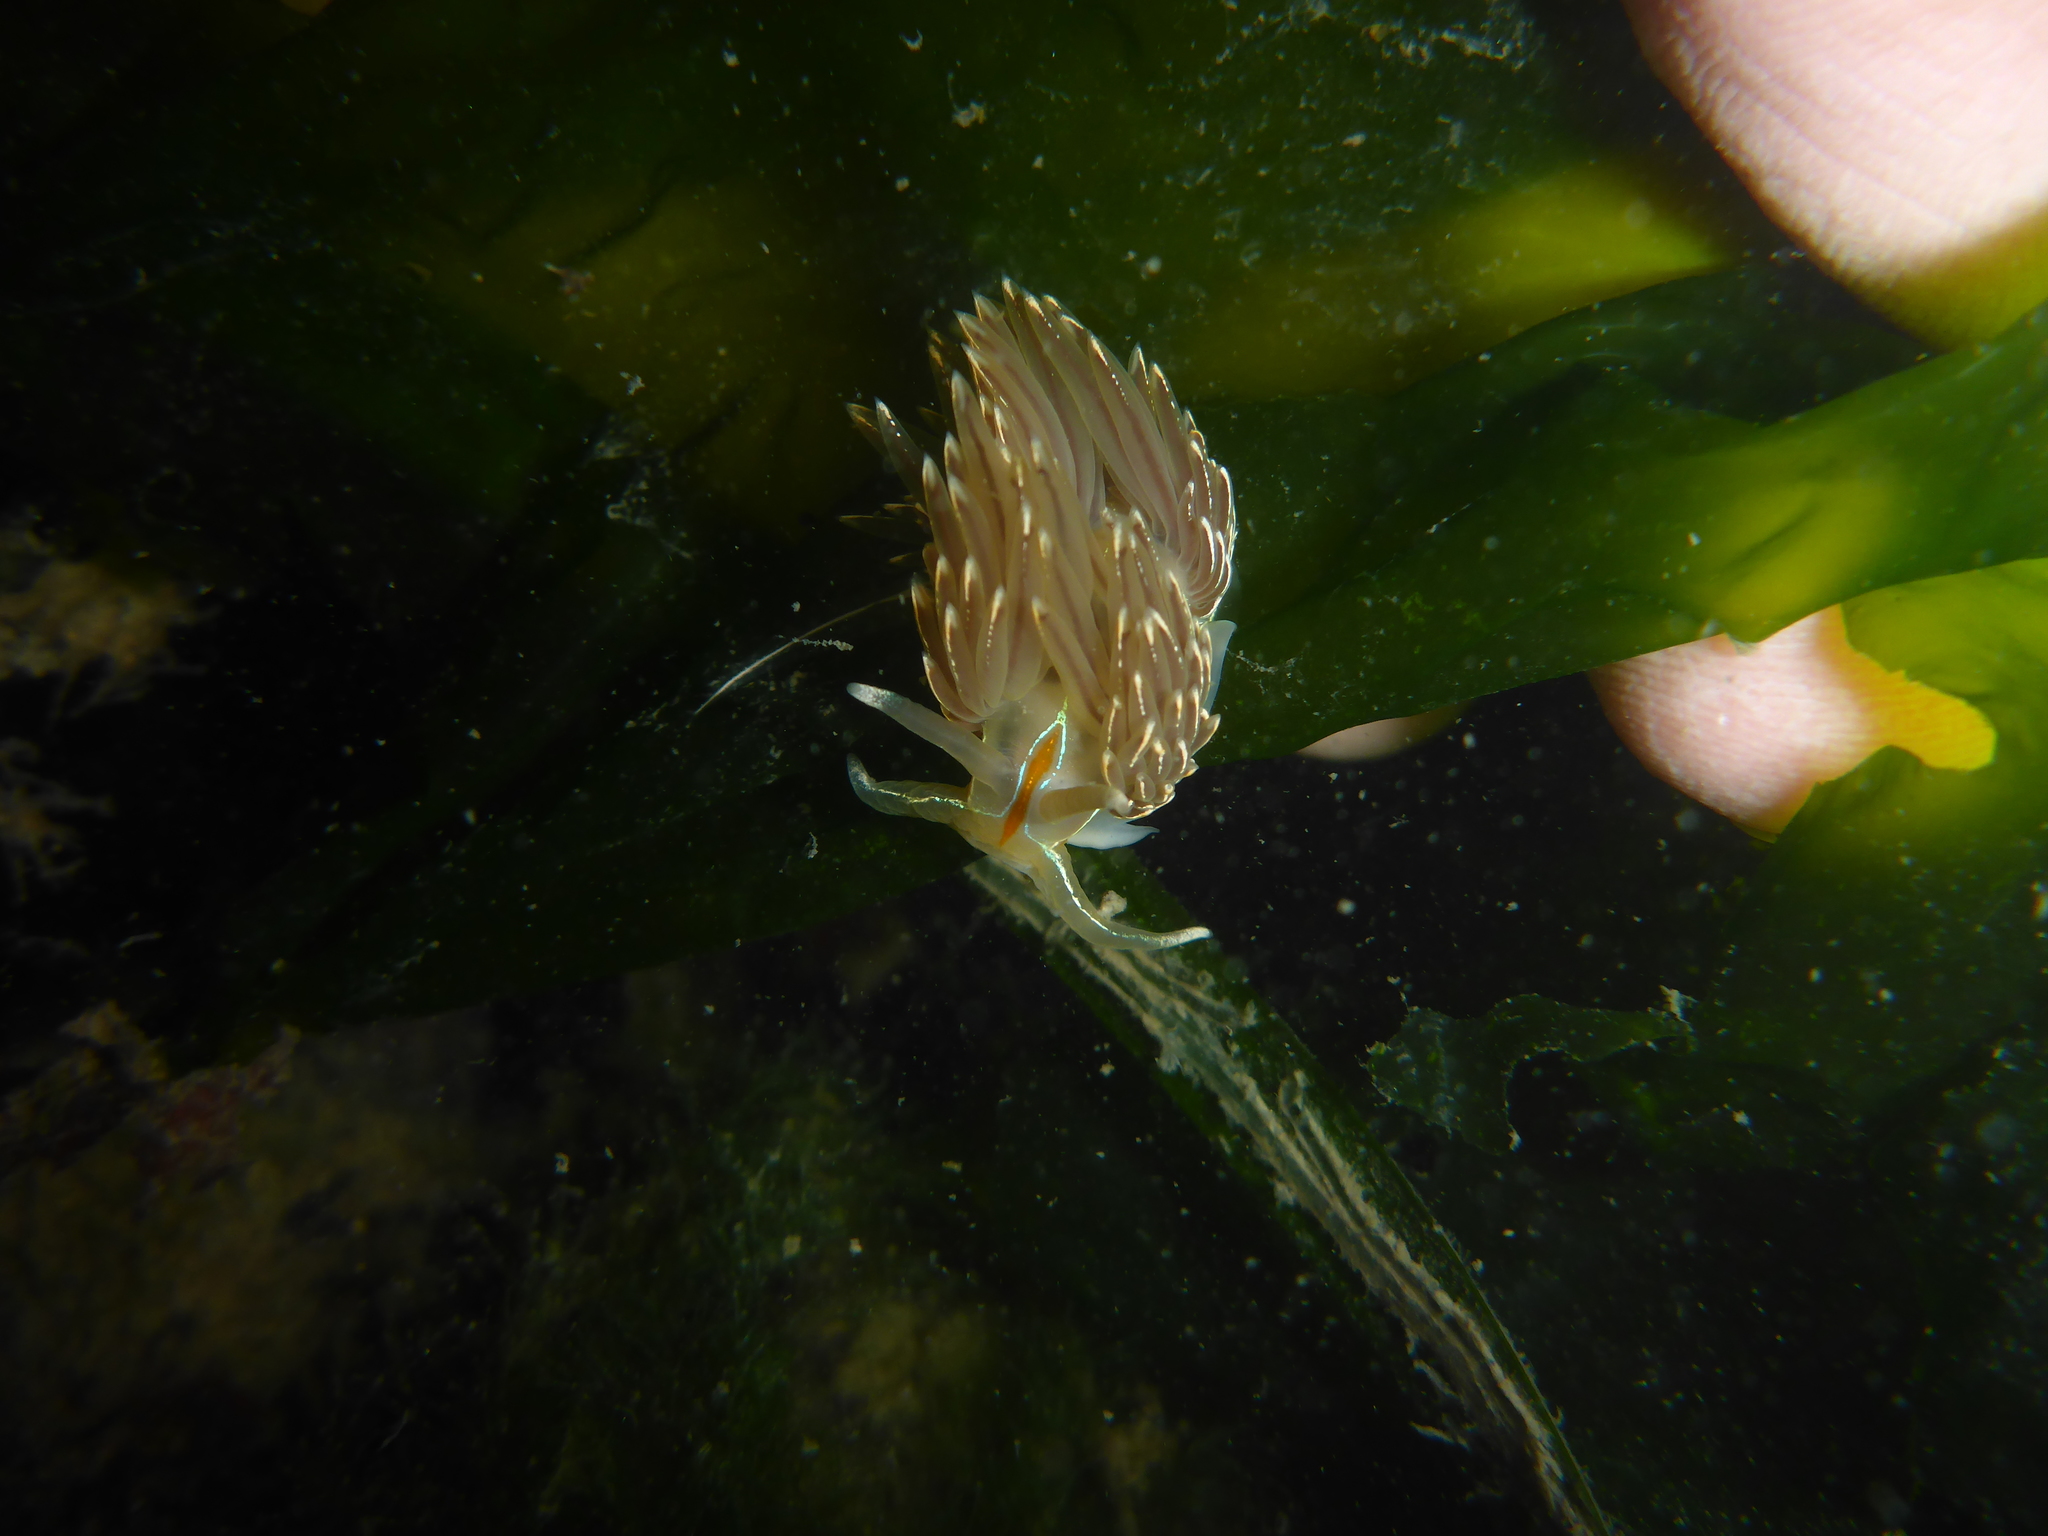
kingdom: Animalia
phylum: Mollusca
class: Gastropoda
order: Nudibranchia
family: Myrrhinidae
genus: Hermissenda
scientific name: Hermissenda crassicornis
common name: Hermissenda
